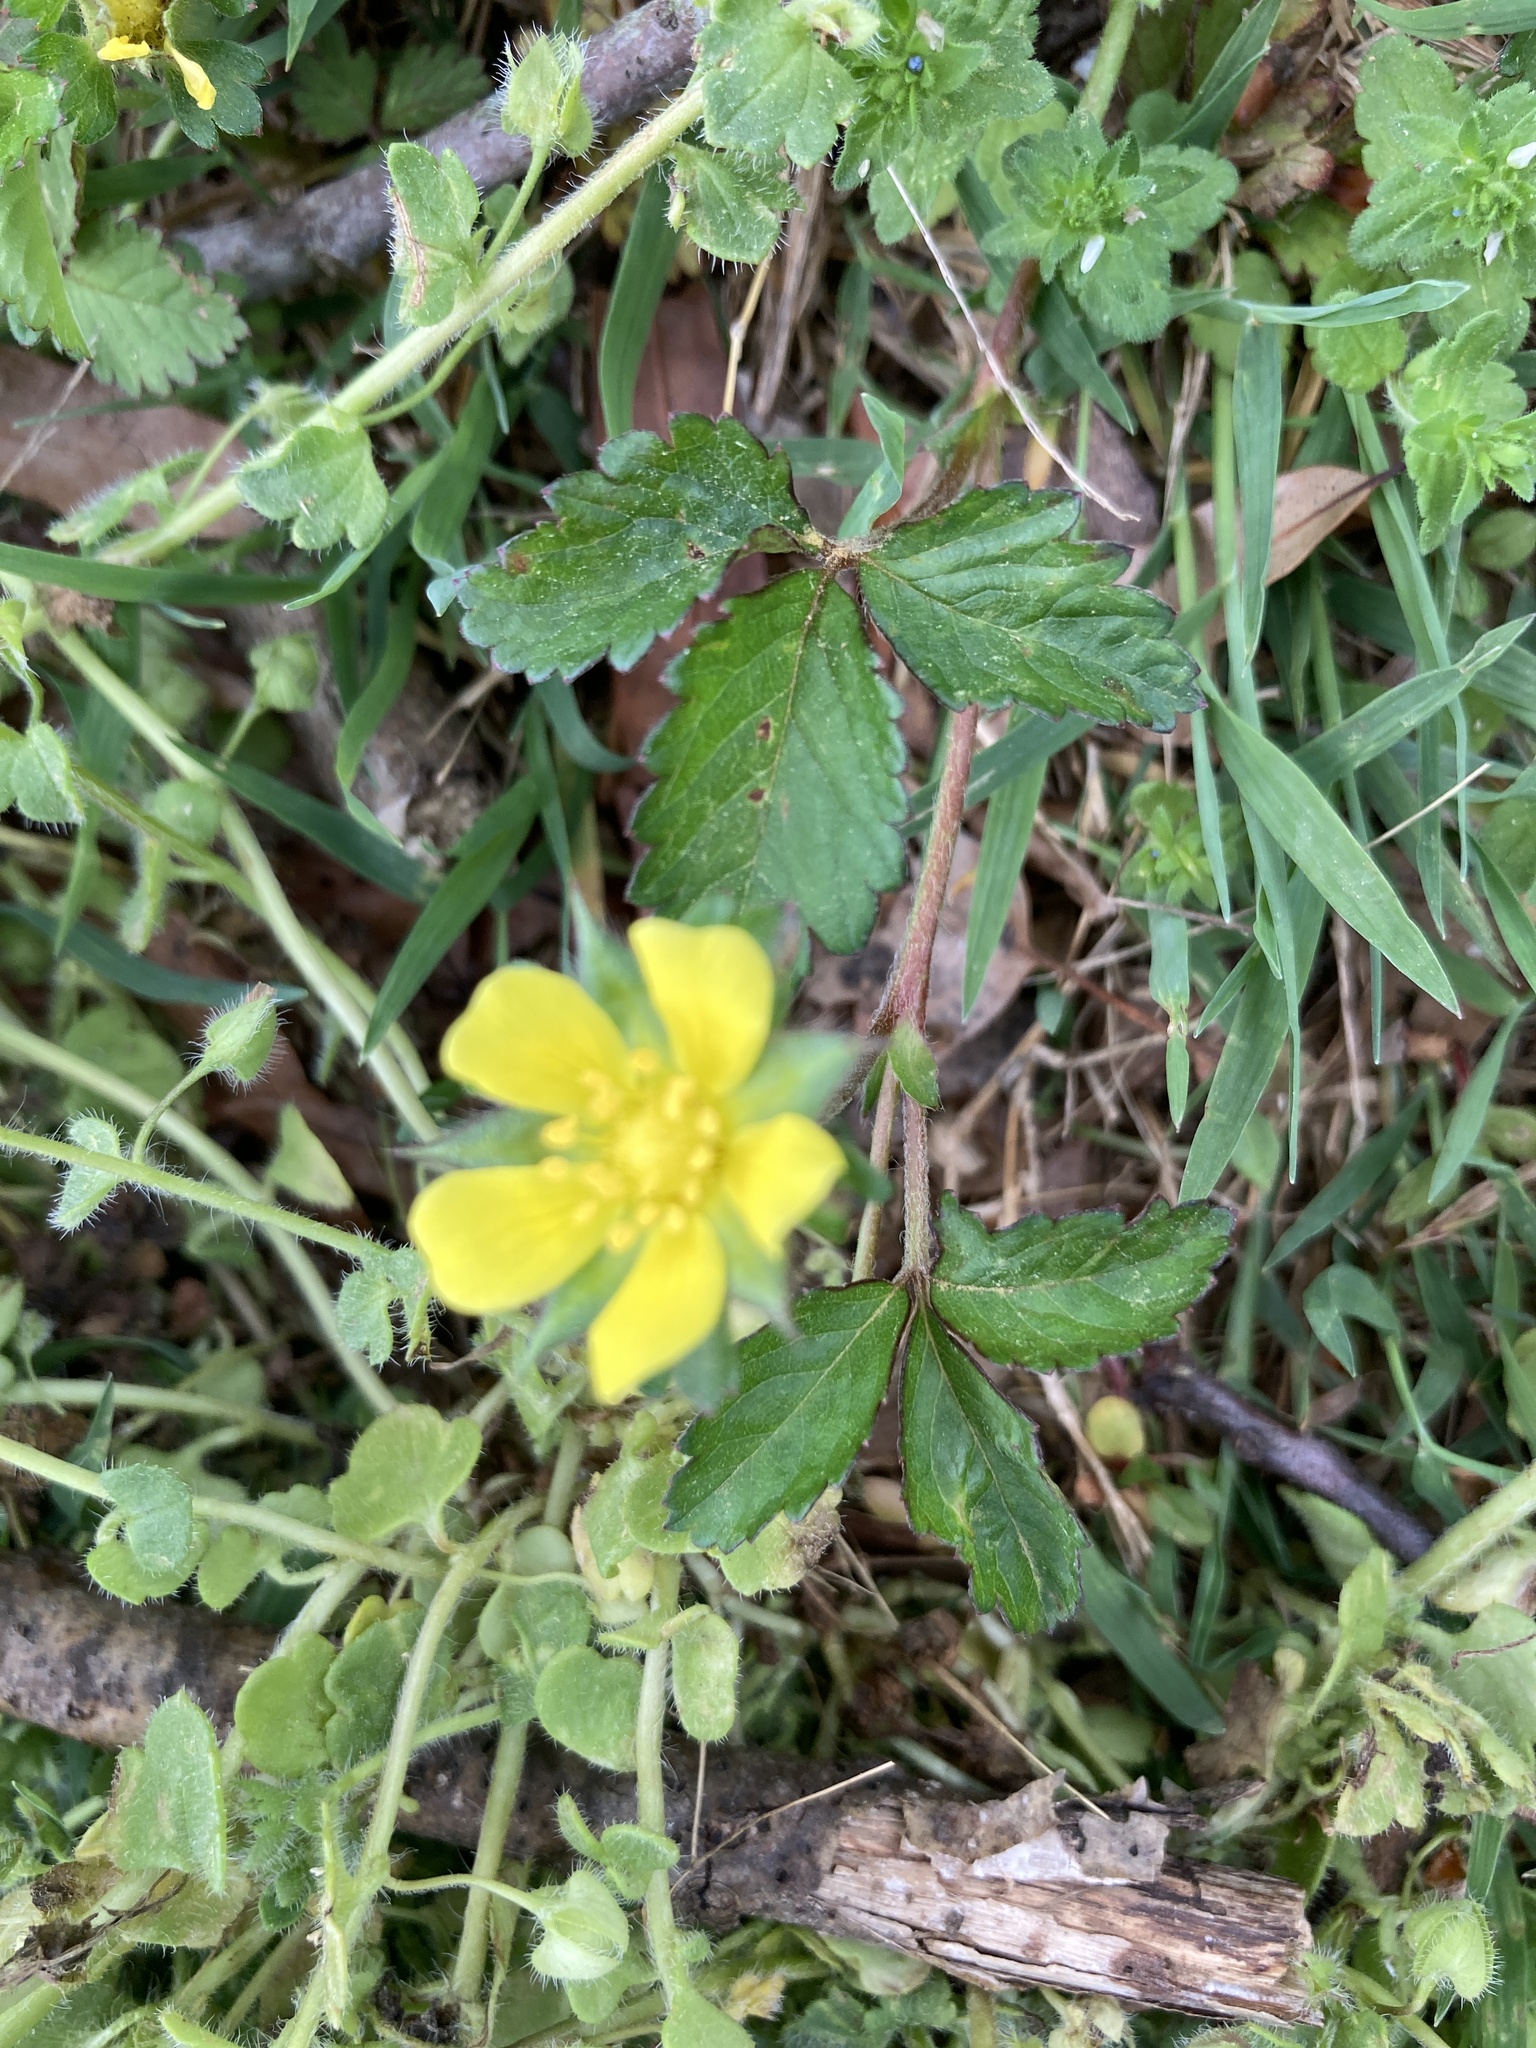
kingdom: Plantae
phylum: Tracheophyta
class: Magnoliopsida
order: Rosales
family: Rosaceae
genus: Potentilla
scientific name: Potentilla indica
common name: Yellow-flowered strawberry
